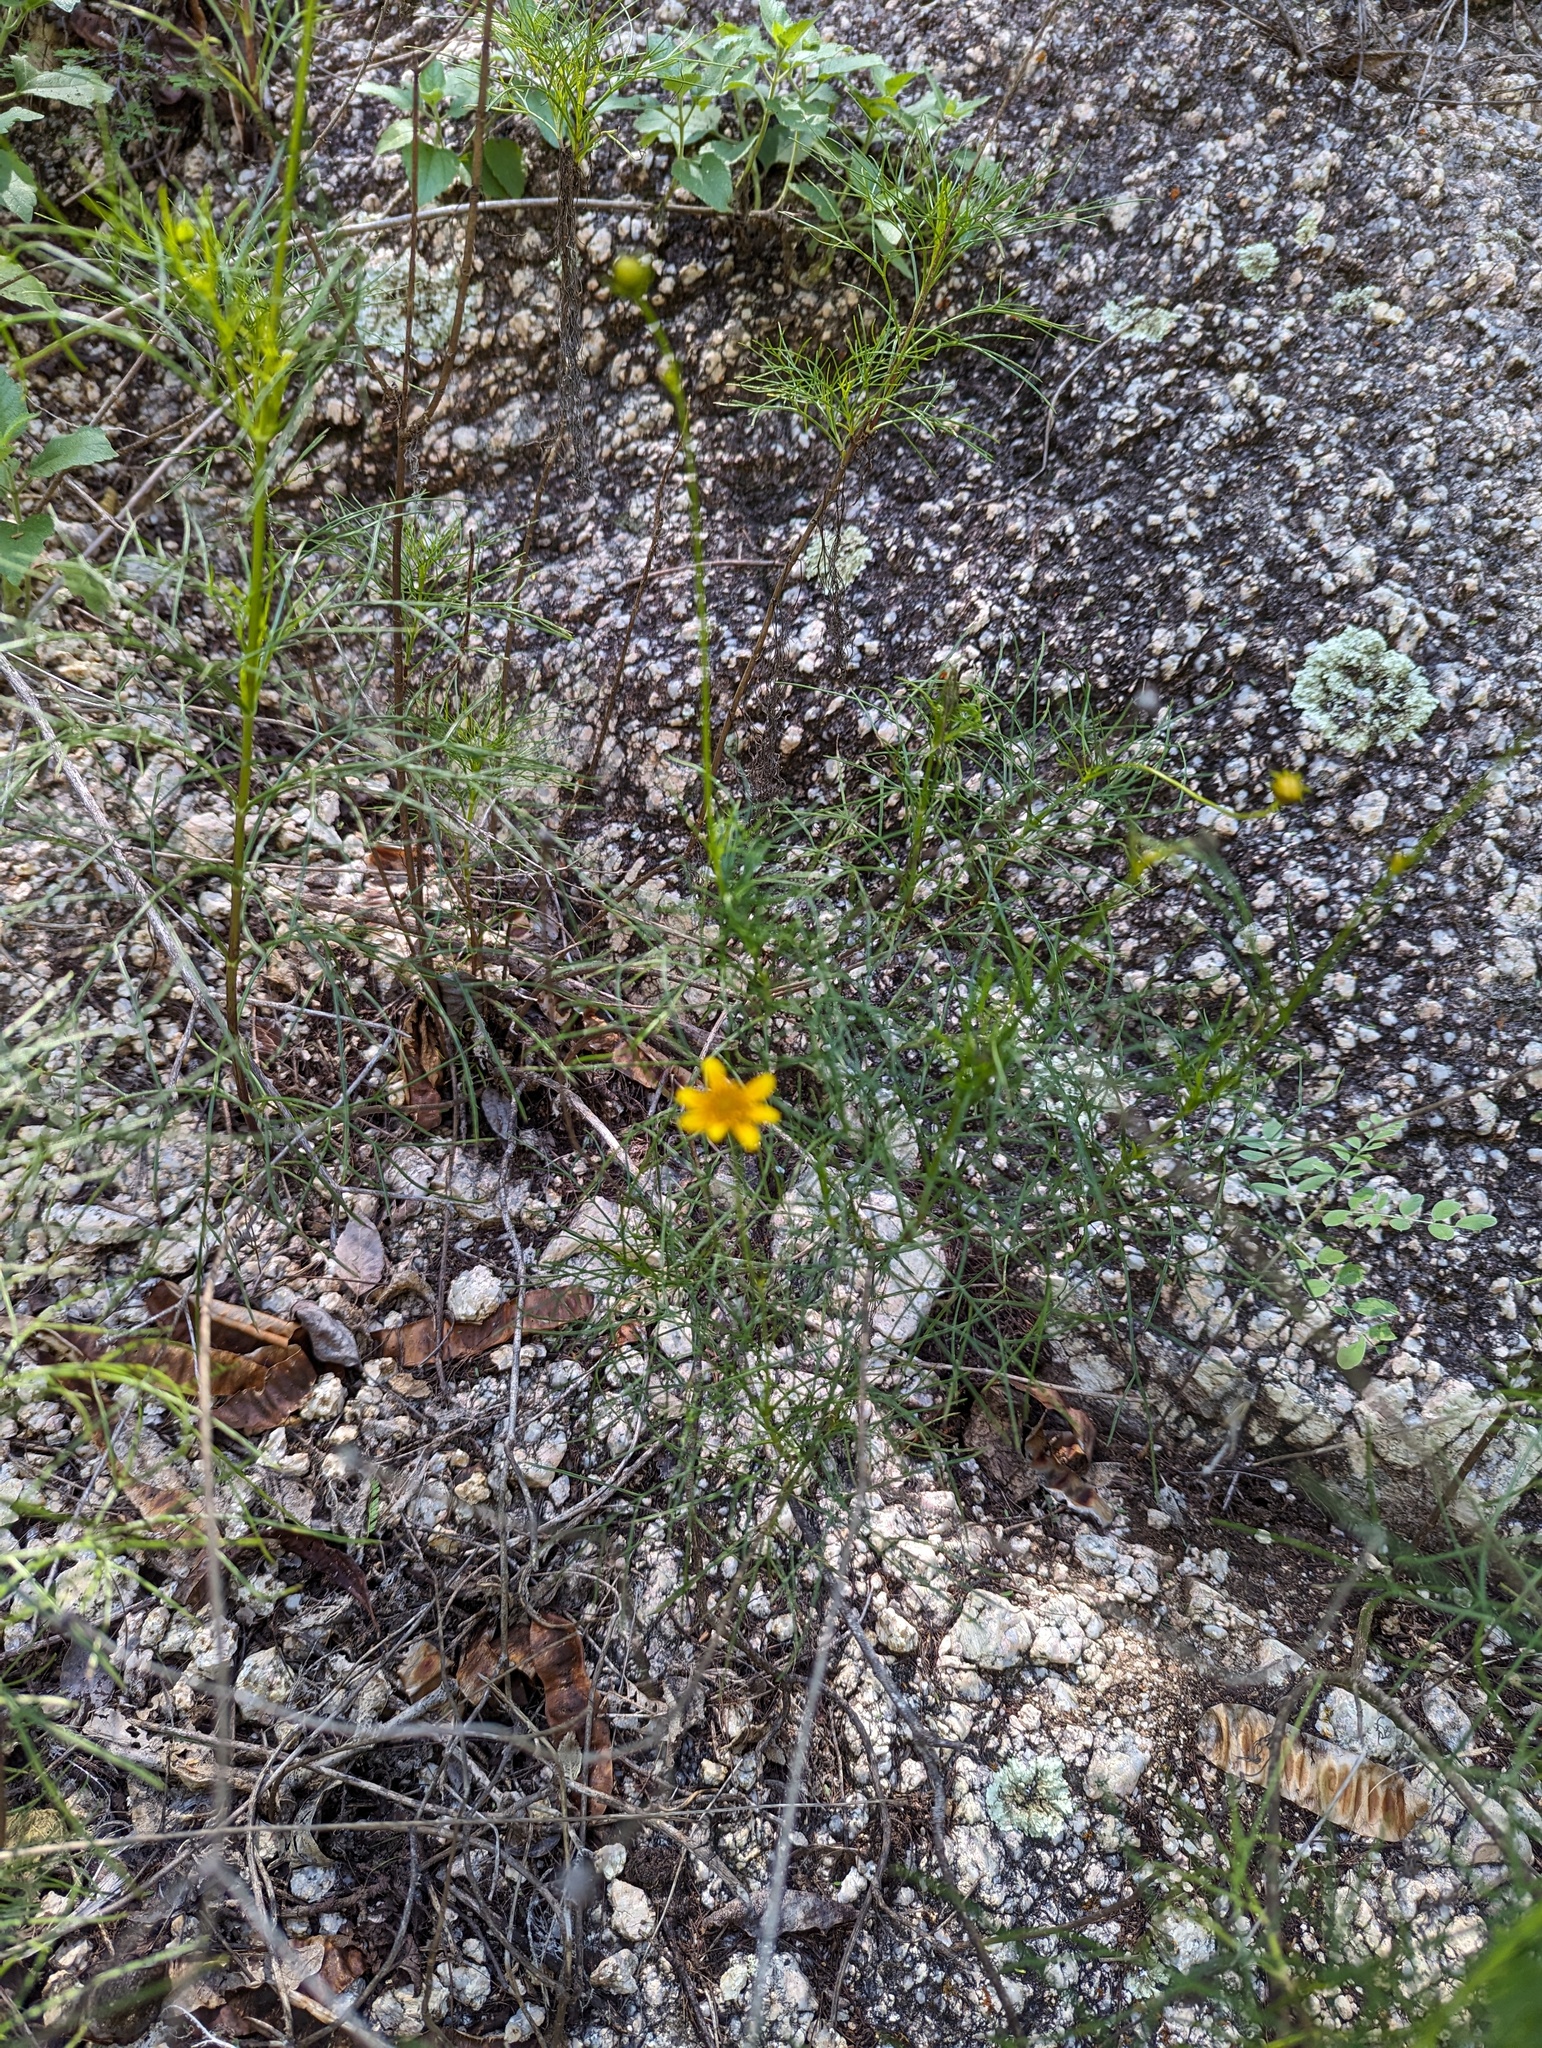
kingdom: Plantae
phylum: Tracheophyta
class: Magnoliopsida
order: Asterales
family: Asteraceae
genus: Bidens
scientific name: Bidens nudata
